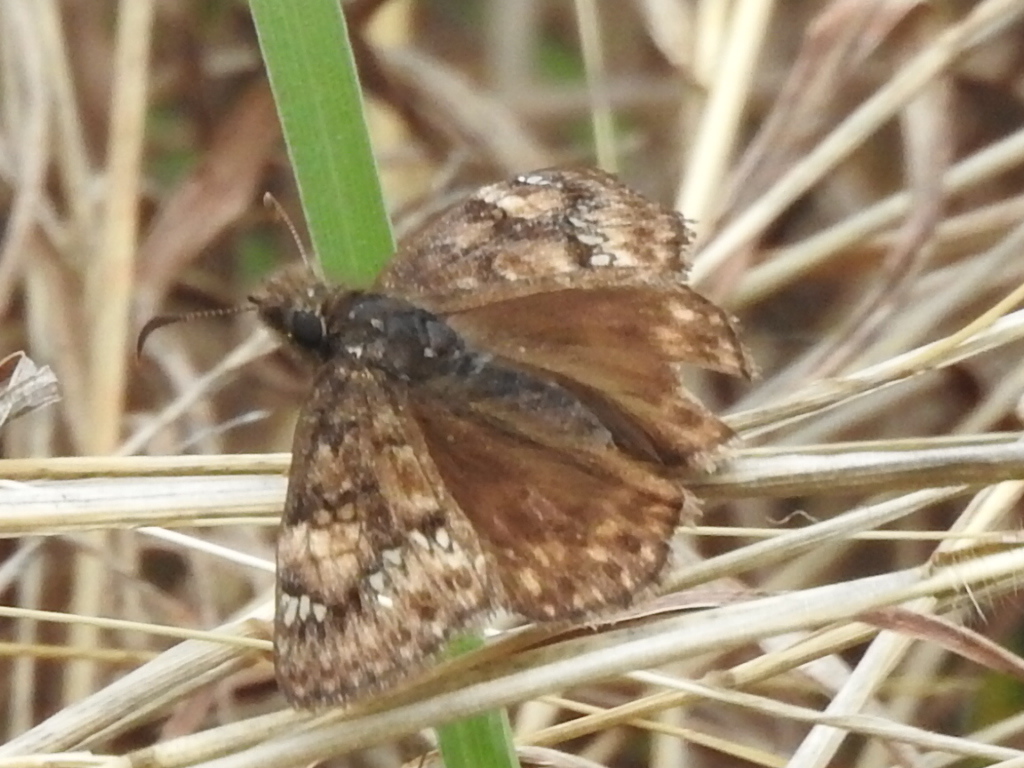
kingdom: Animalia
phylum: Arthropoda
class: Insecta
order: Lepidoptera
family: Hesperiidae
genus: Erynnis
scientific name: Erynnis juvenalis
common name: Juvenal's duskywing
